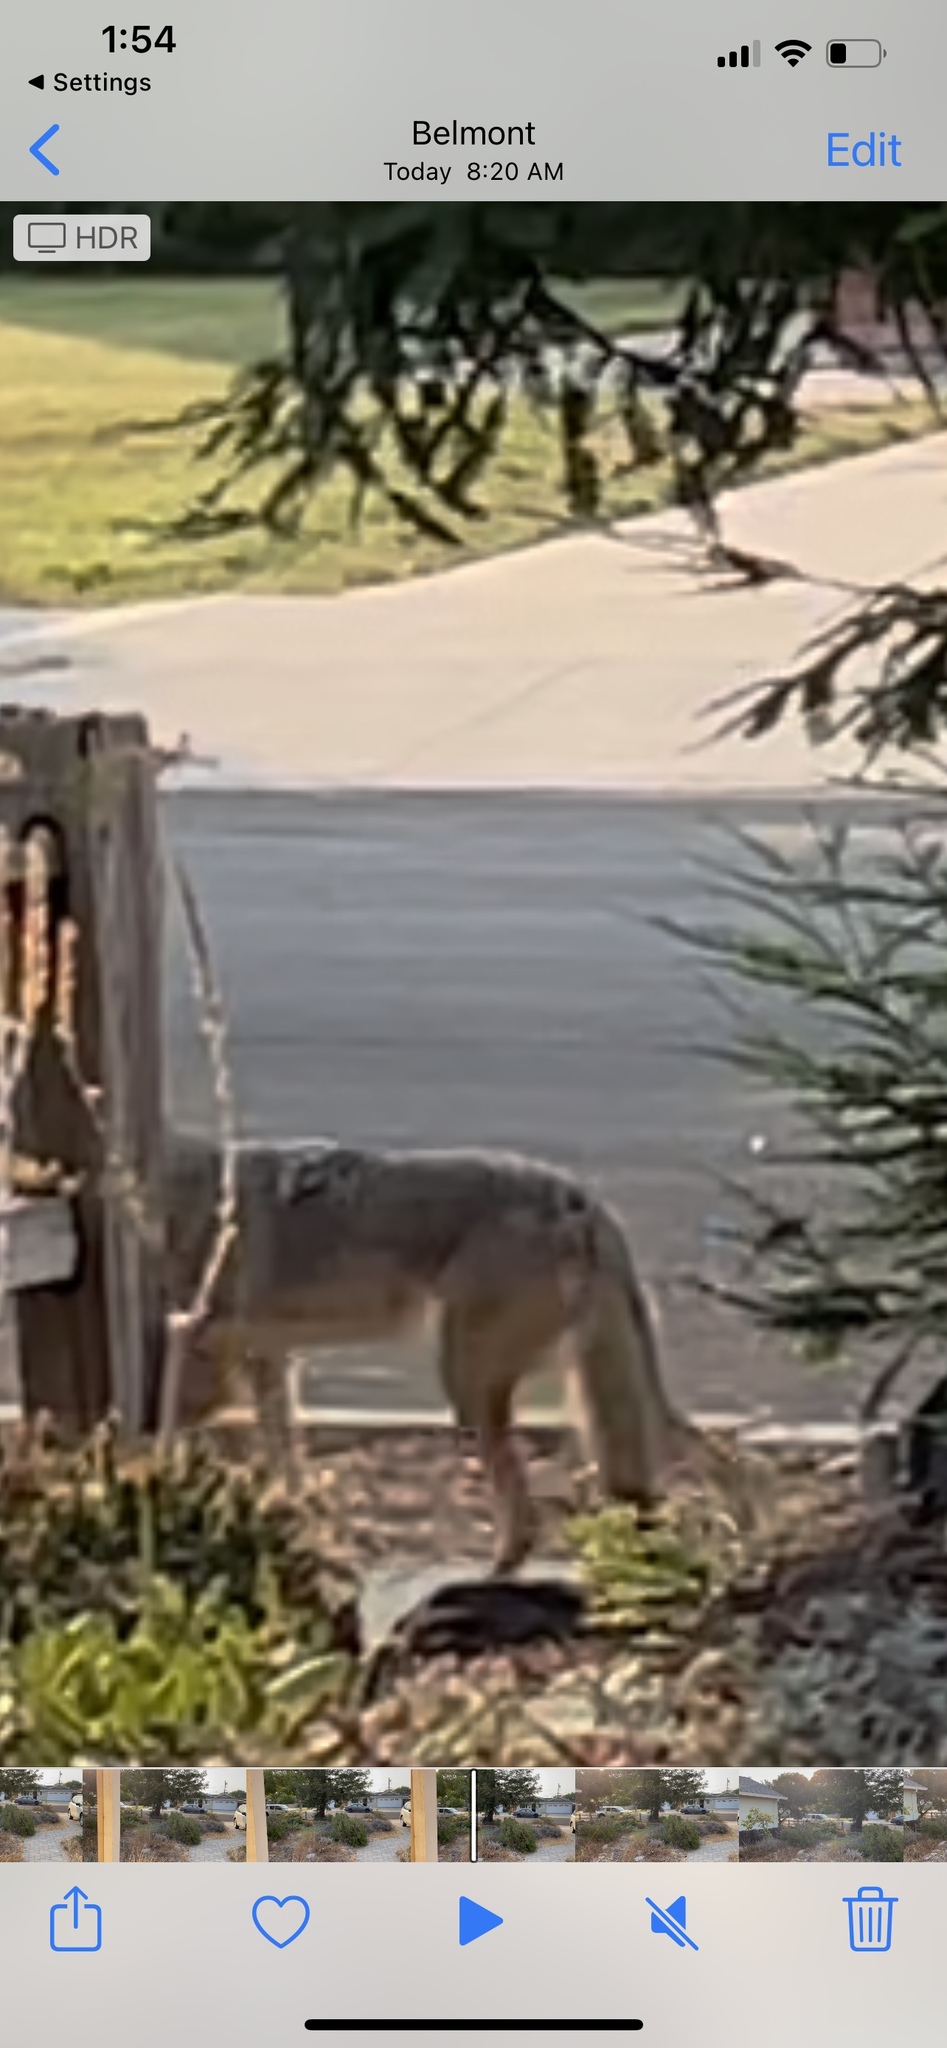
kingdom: Animalia
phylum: Chordata
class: Mammalia
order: Carnivora
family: Canidae
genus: Canis
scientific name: Canis latrans
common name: Coyote
